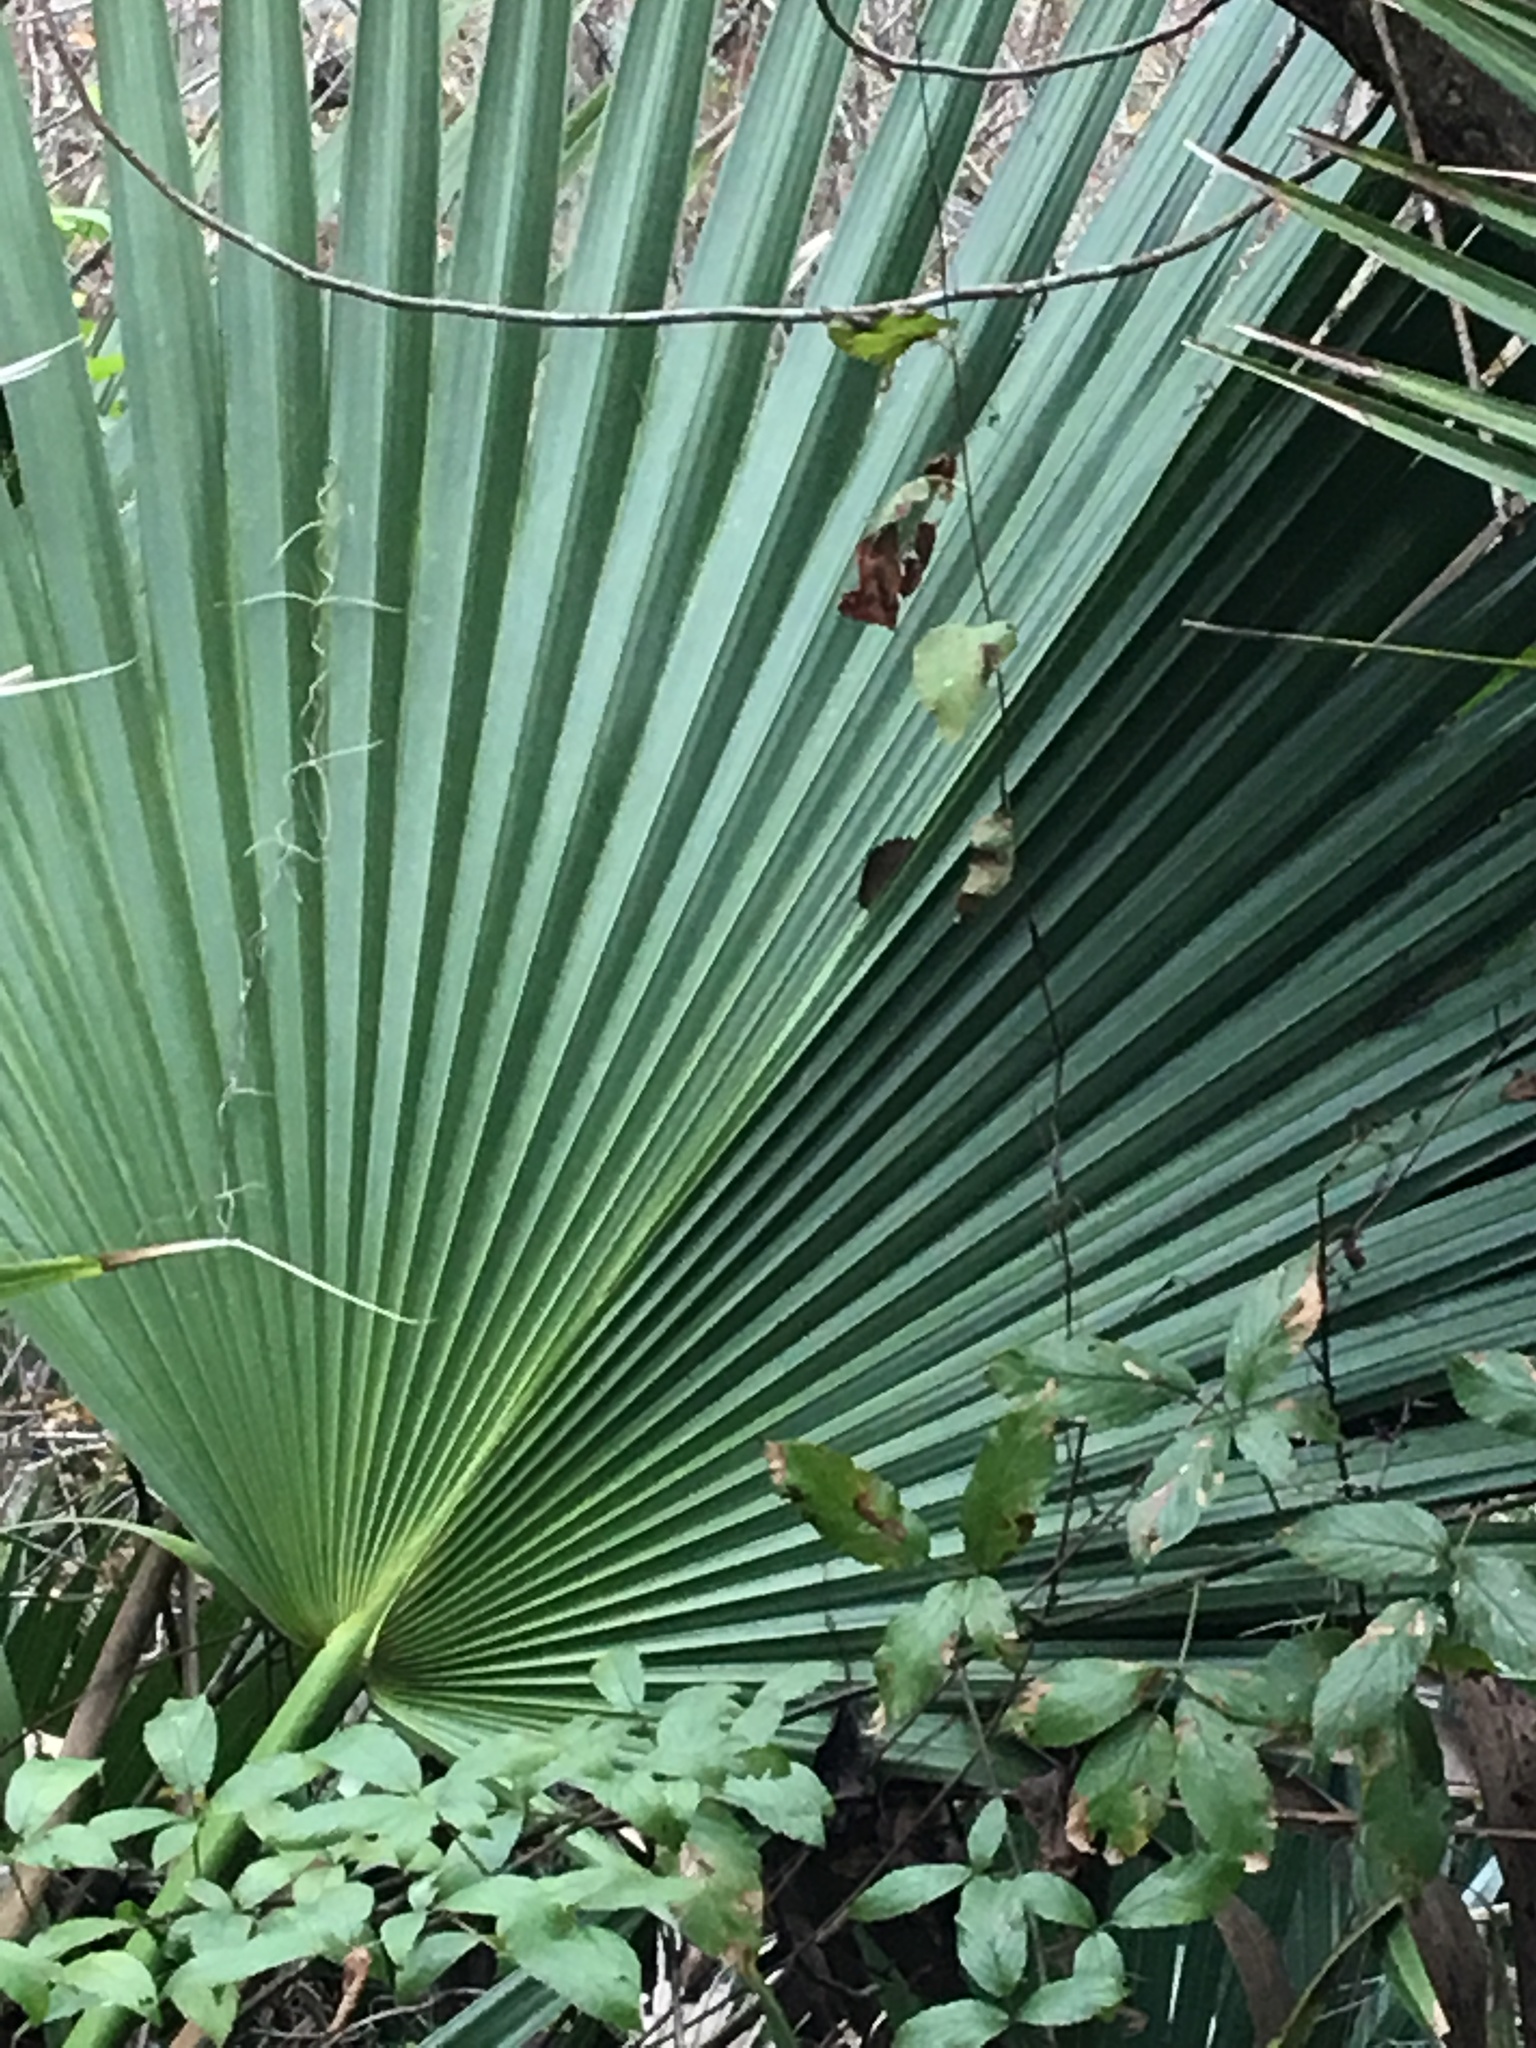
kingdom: Plantae
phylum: Tracheophyta
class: Liliopsida
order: Arecales
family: Arecaceae
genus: Sabal
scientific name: Sabal minor
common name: Dwarf palmetto
